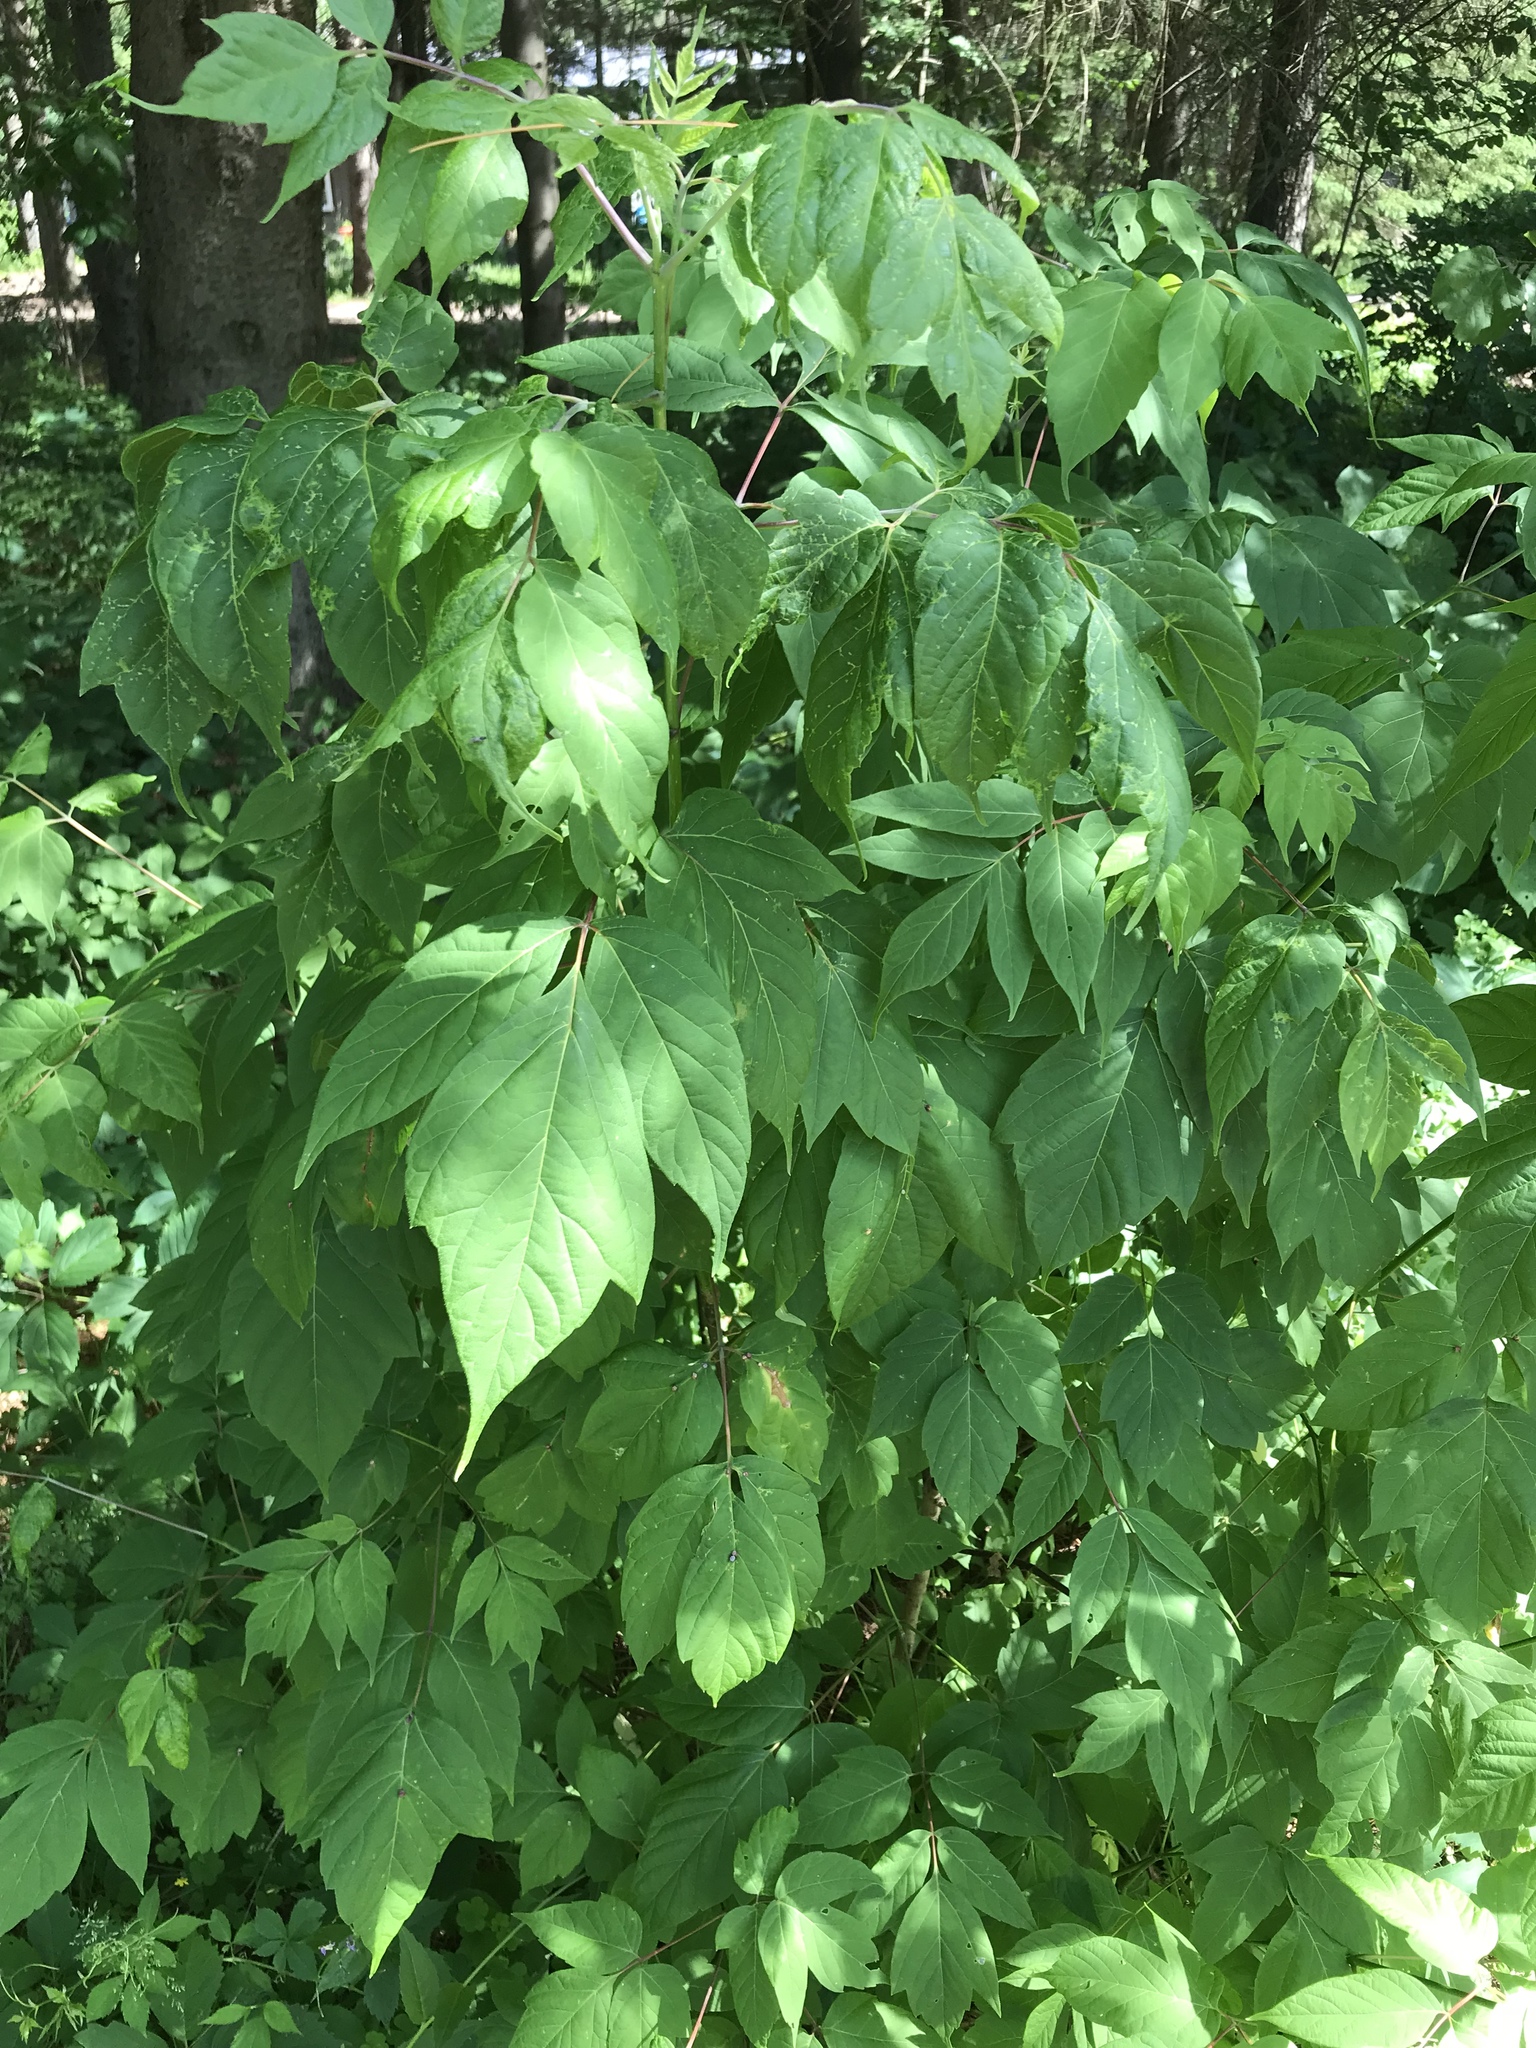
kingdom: Plantae
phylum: Tracheophyta
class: Magnoliopsida
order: Sapindales
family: Sapindaceae
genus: Acer
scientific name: Acer negundo
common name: Ashleaf maple
